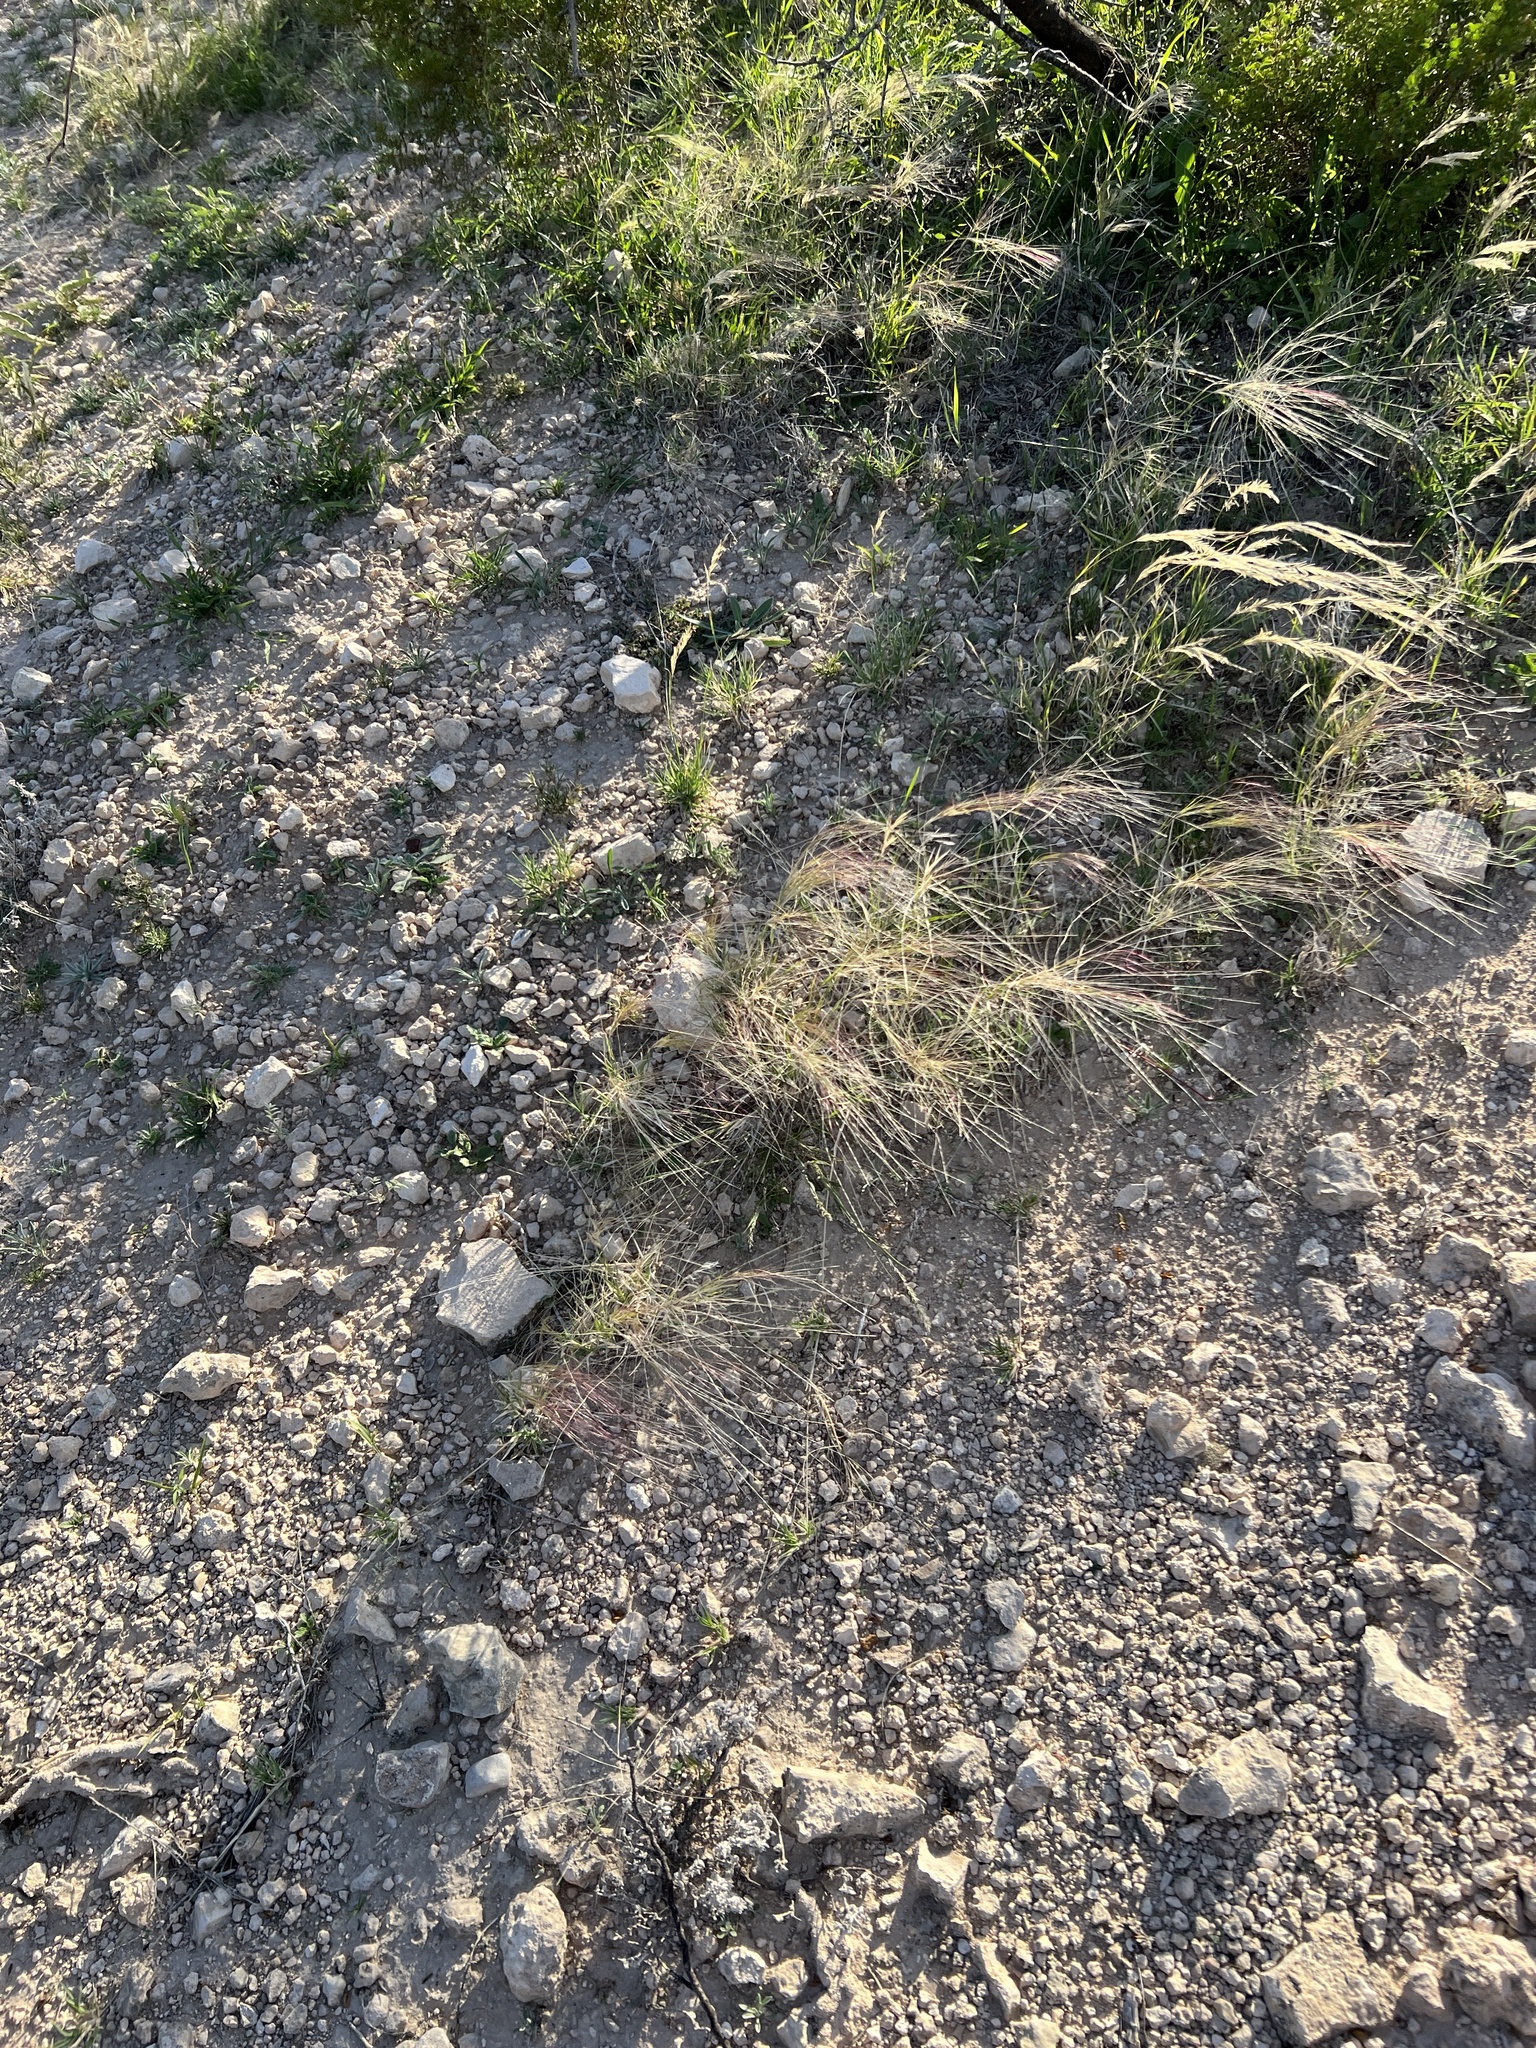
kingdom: Plantae
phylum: Tracheophyta
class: Liliopsida
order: Poales
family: Poaceae
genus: Scleropogon
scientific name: Scleropogon brevifolius
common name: Burro grass
